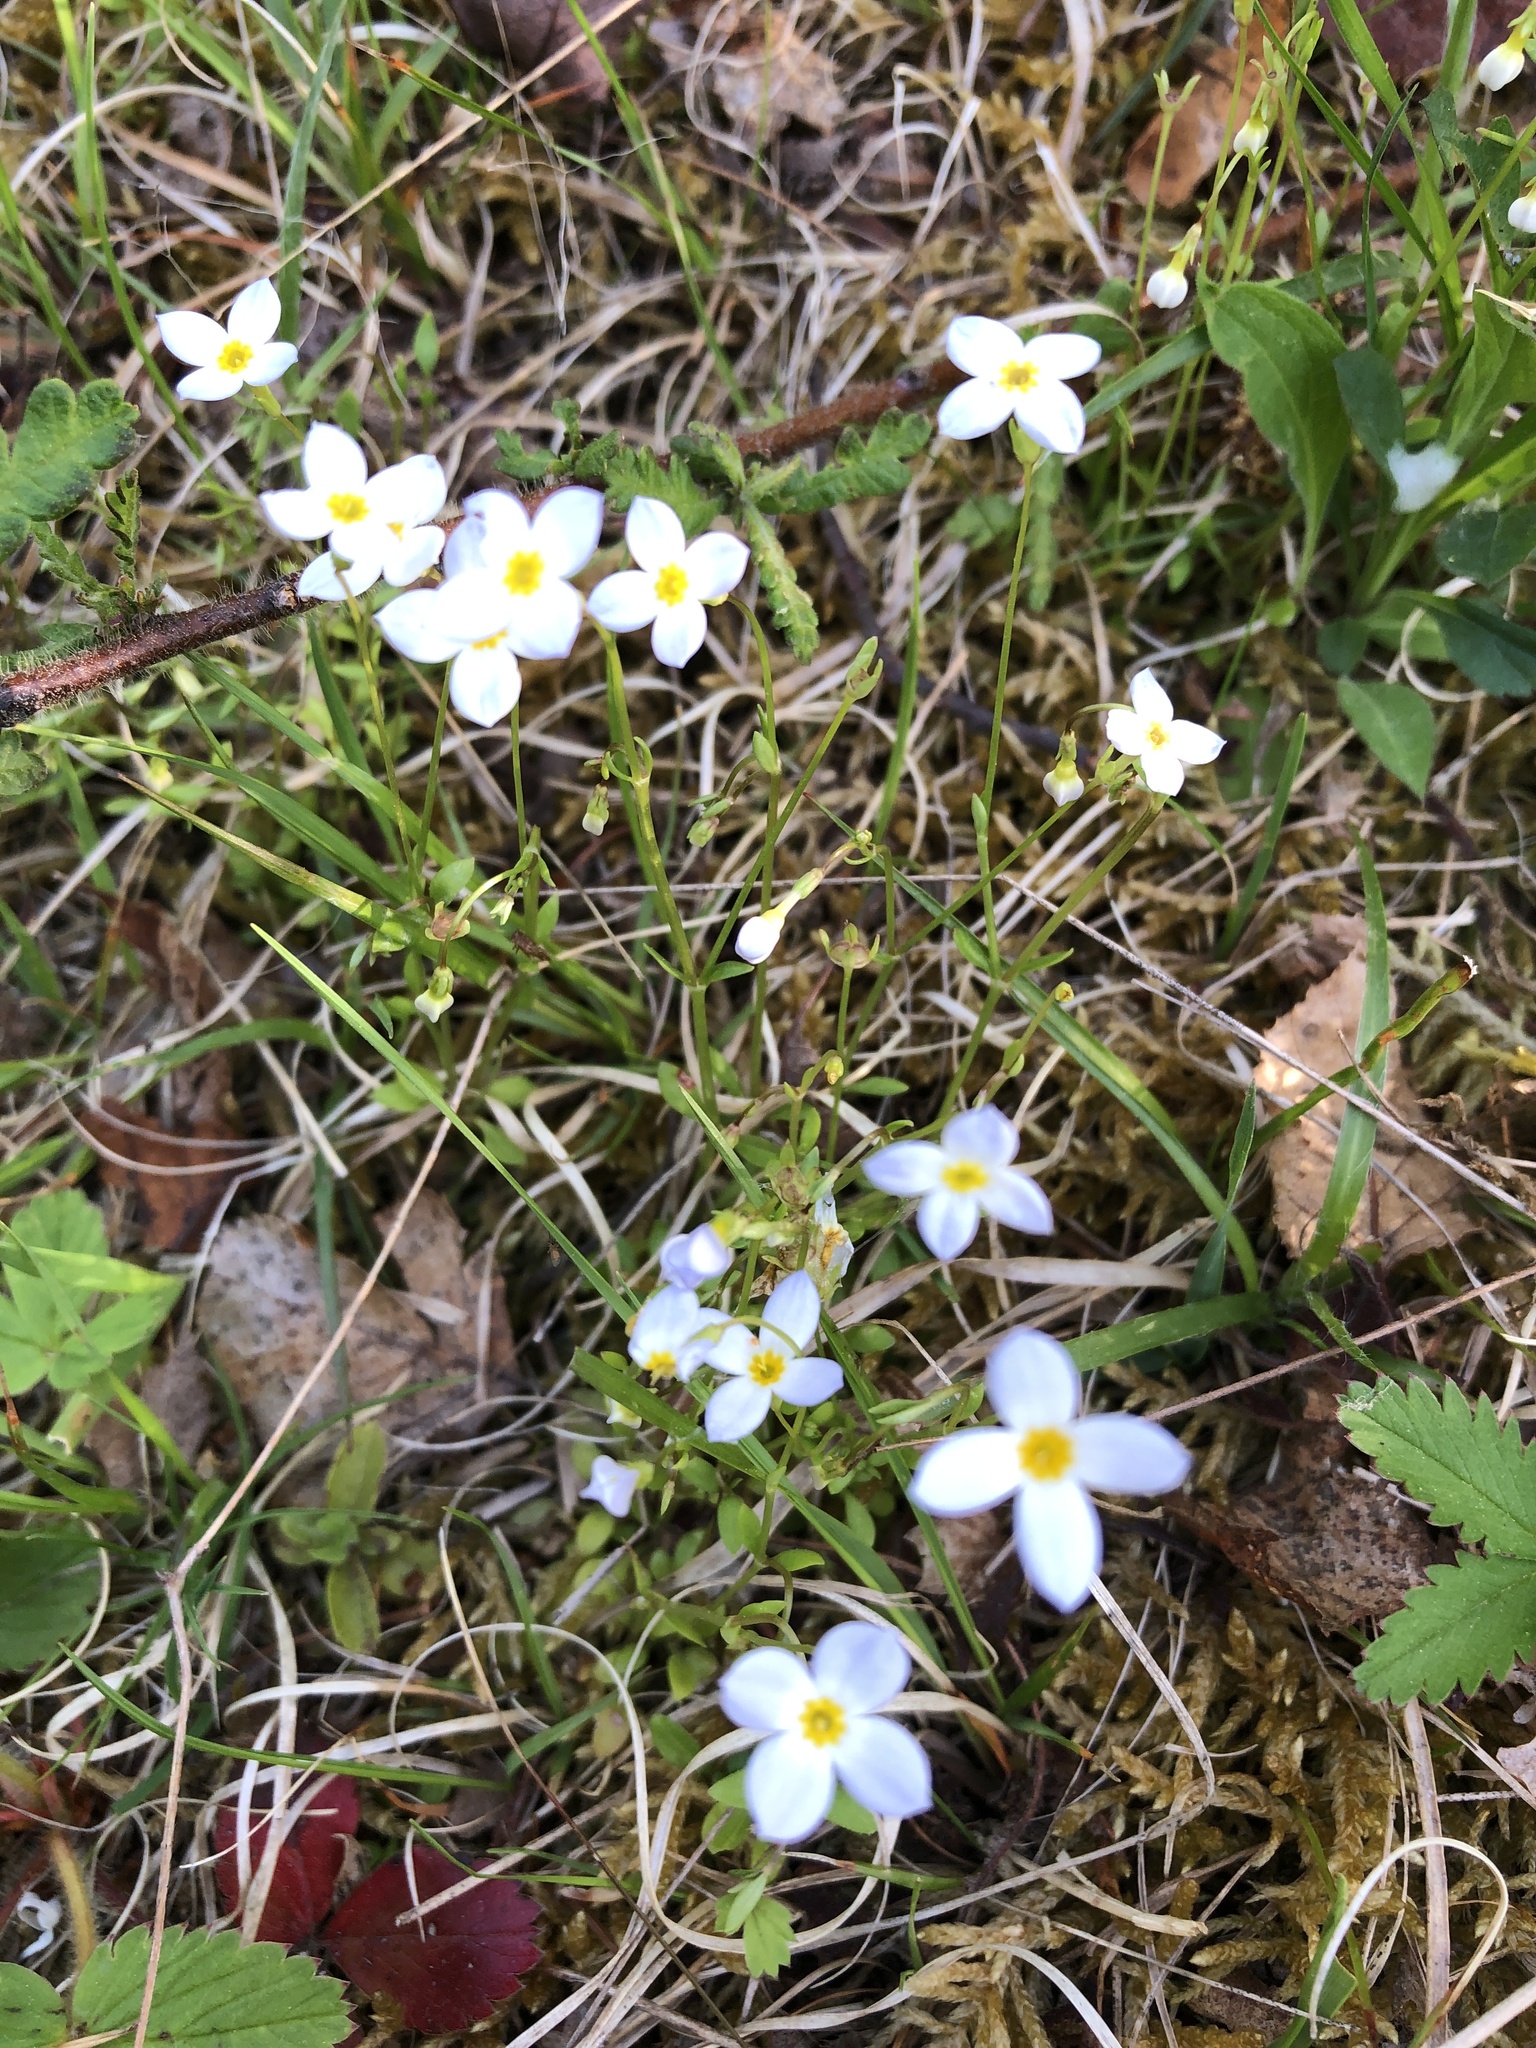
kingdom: Plantae
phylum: Tracheophyta
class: Magnoliopsida
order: Gentianales
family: Rubiaceae
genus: Houstonia
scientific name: Houstonia caerulea
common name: Bluets
